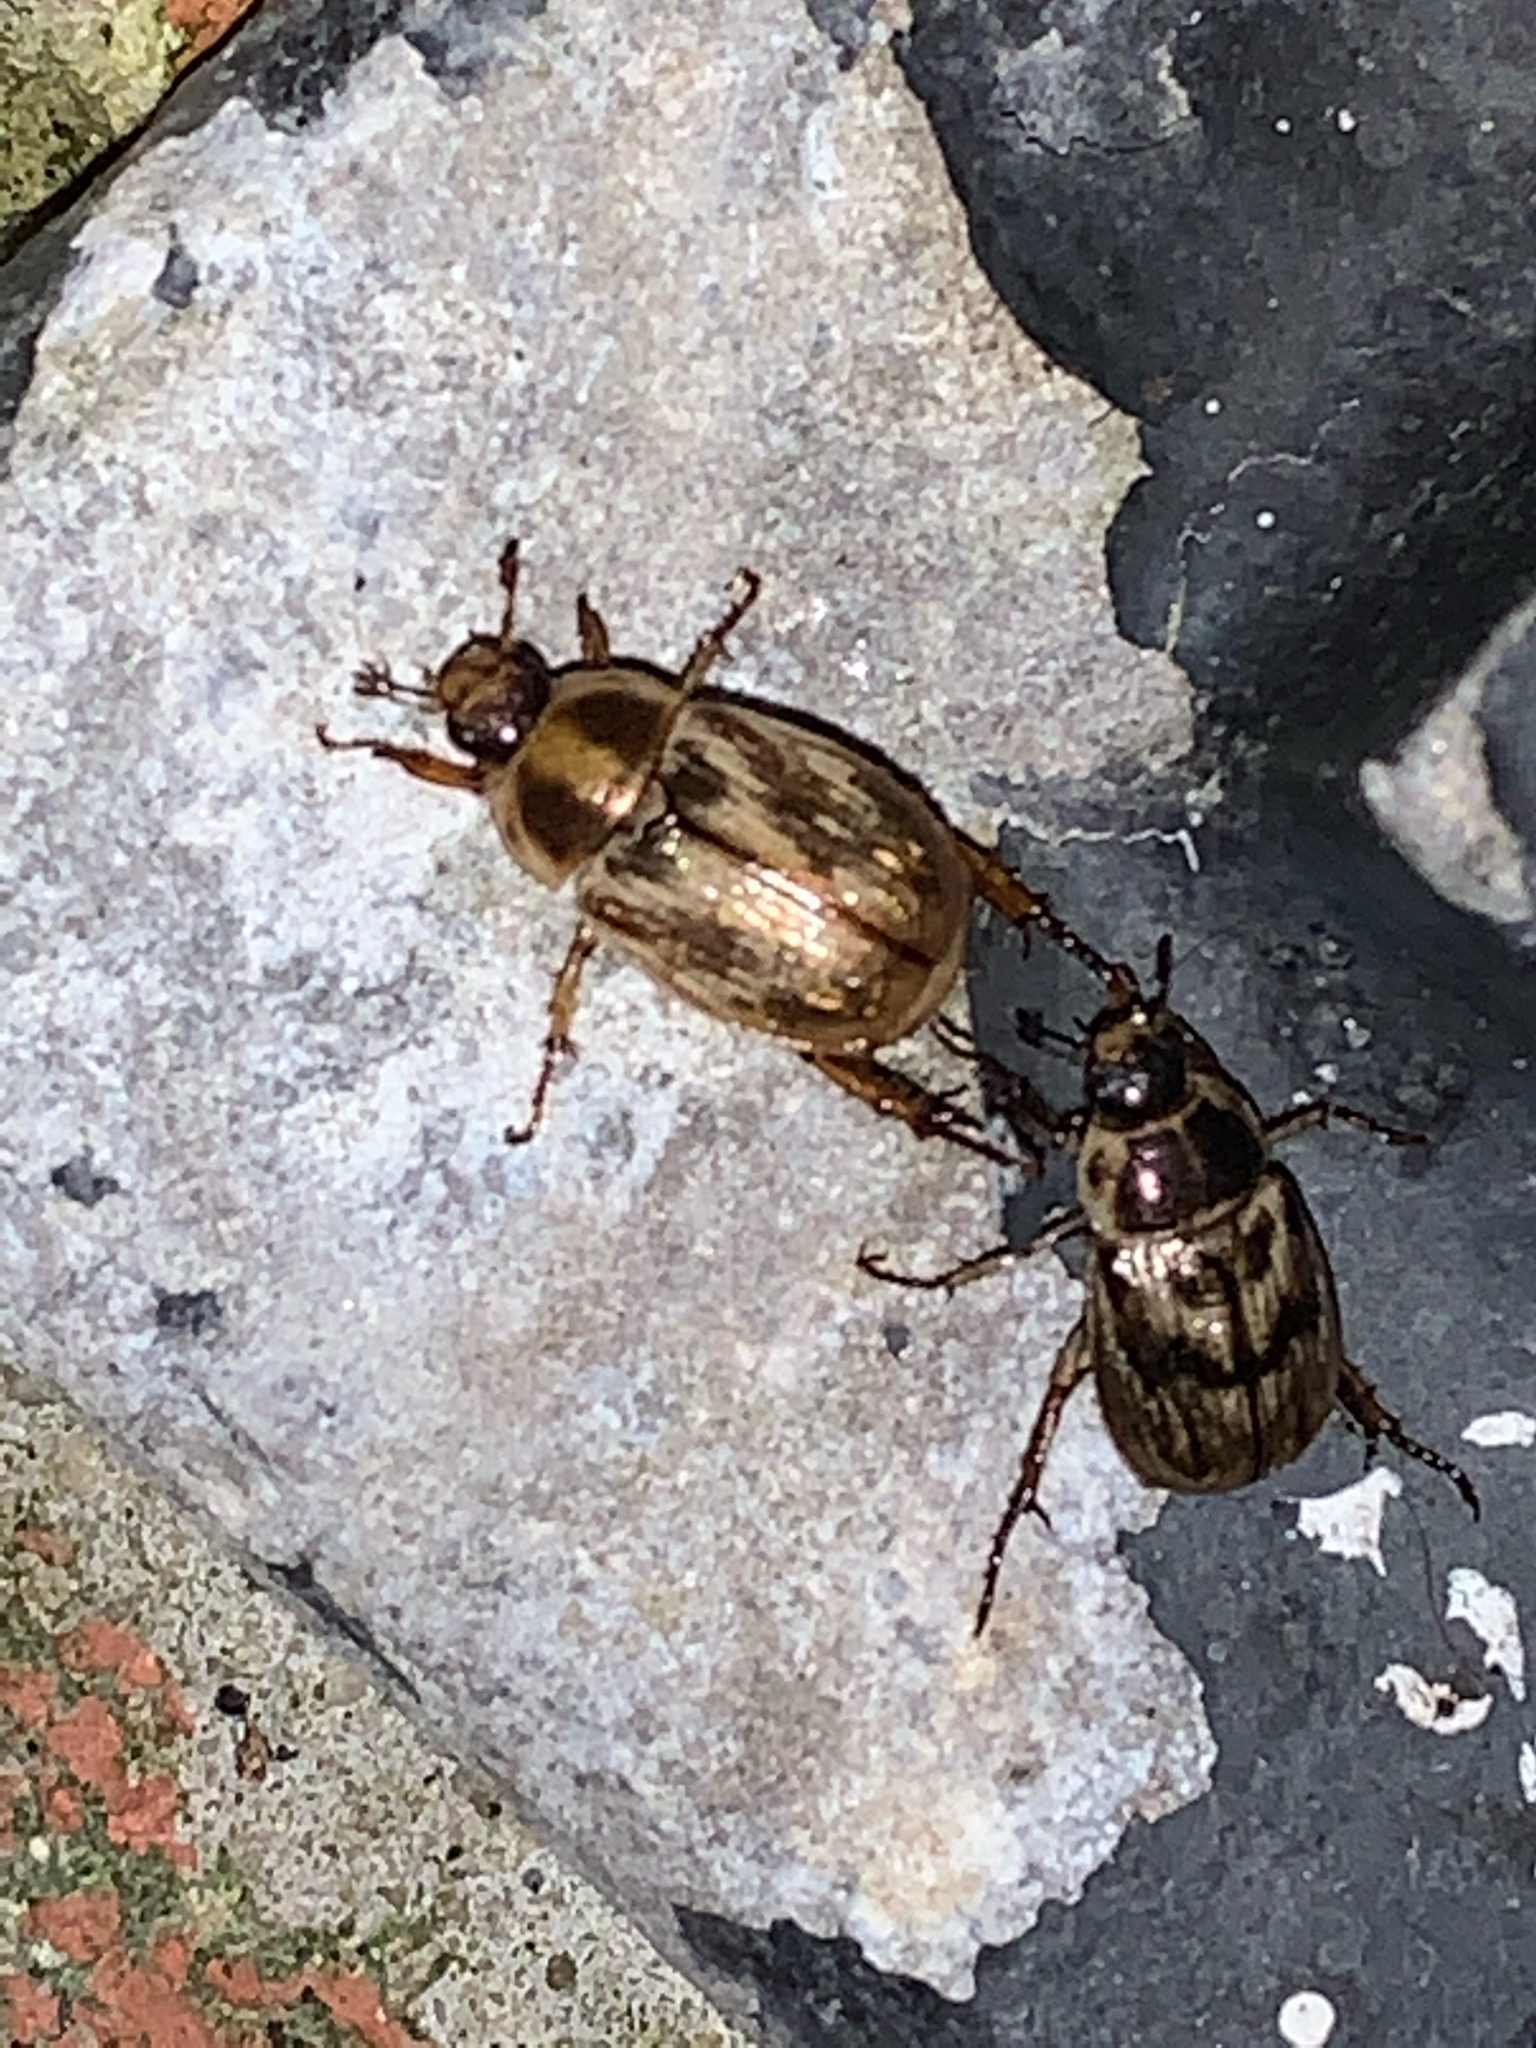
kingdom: Animalia
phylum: Arthropoda
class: Insecta
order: Coleoptera
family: Scarabaeidae
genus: Exomala
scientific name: Exomala orientalis
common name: Oriental beetle
